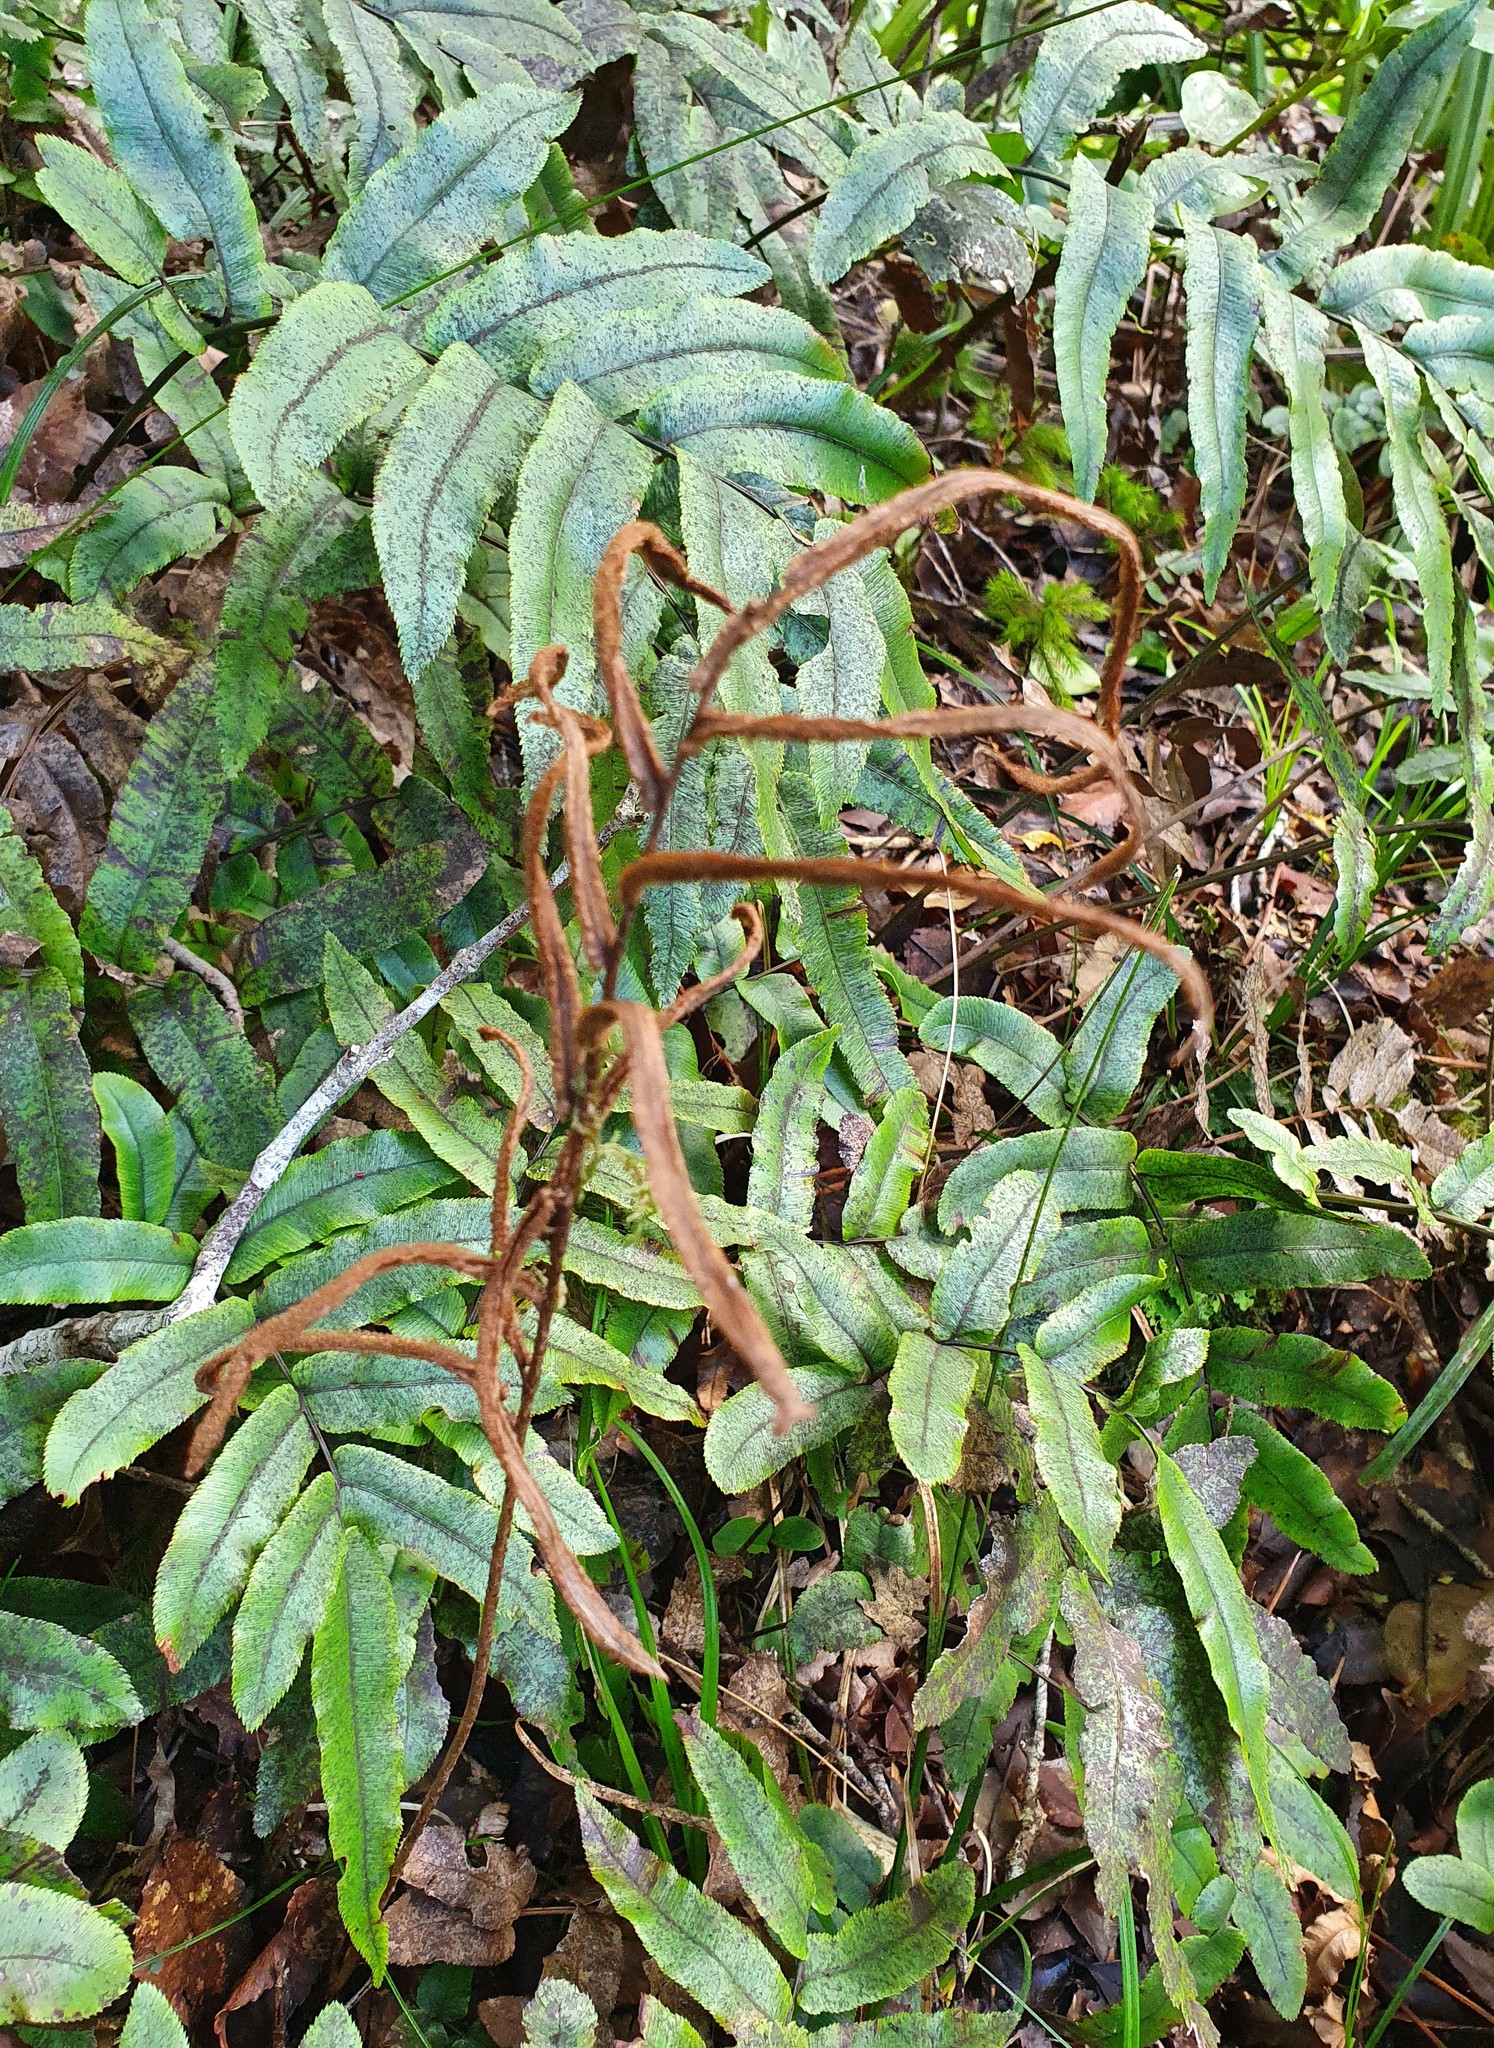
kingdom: Plantae
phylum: Tracheophyta
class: Polypodiopsida
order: Polypodiales
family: Blechnaceae
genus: Parablechnum
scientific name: Parablechnum procerum
